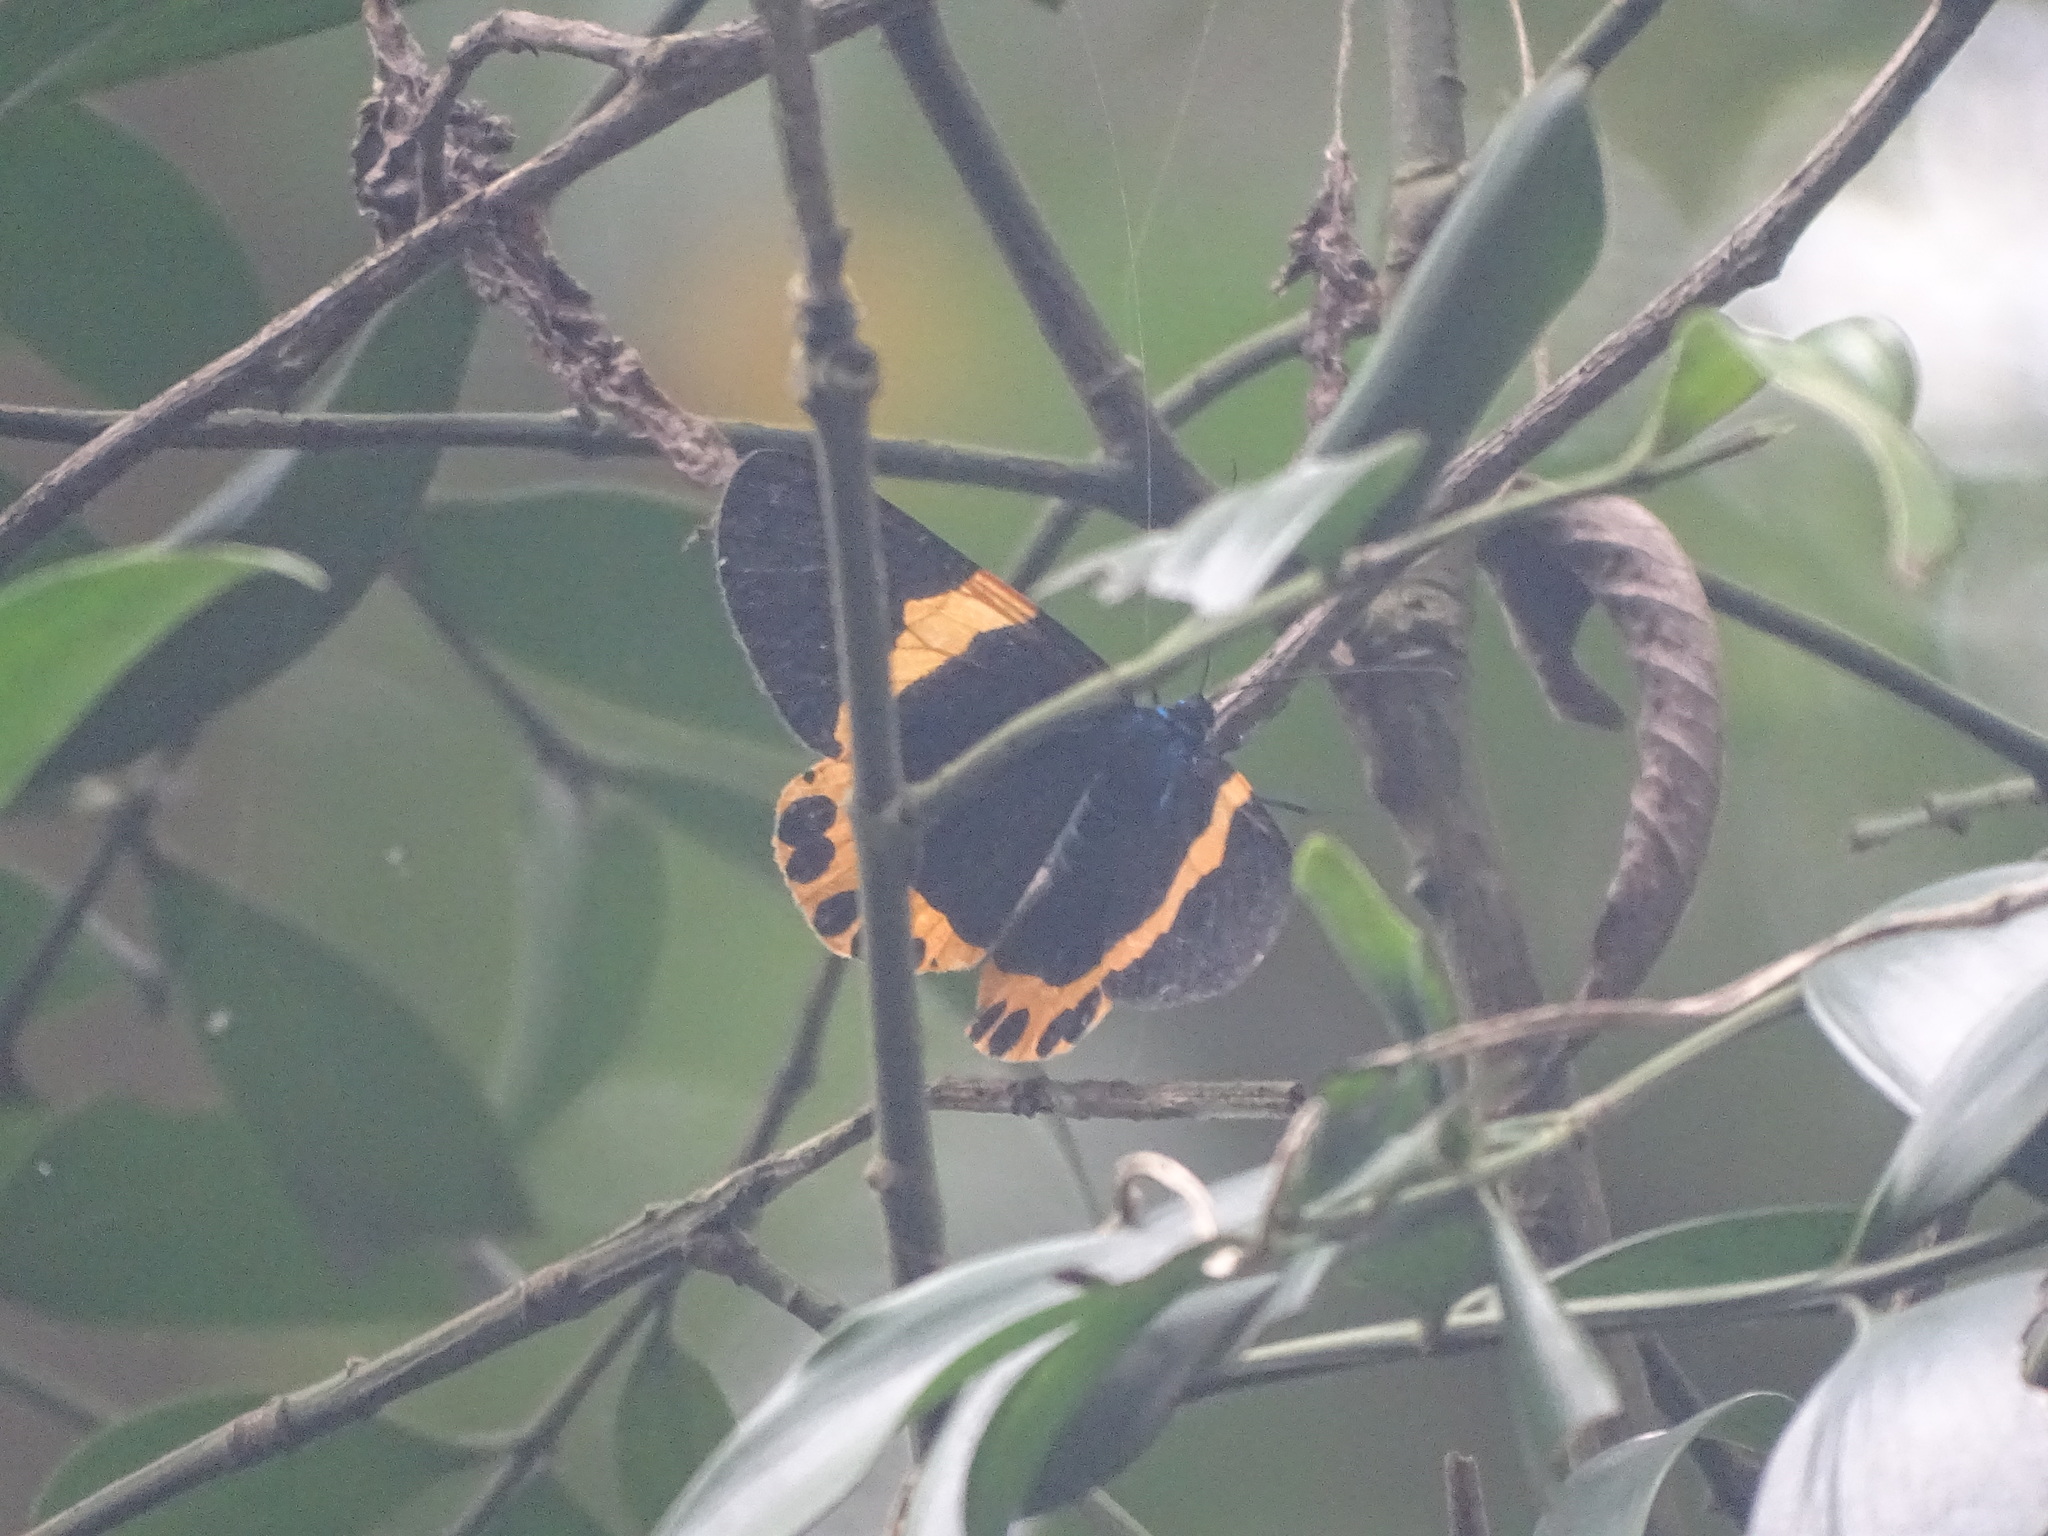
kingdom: Animalia
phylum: Arthropoda
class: Insecta
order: Lepidoptera
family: Geometridae
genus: Milionia
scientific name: Milionia basalis
